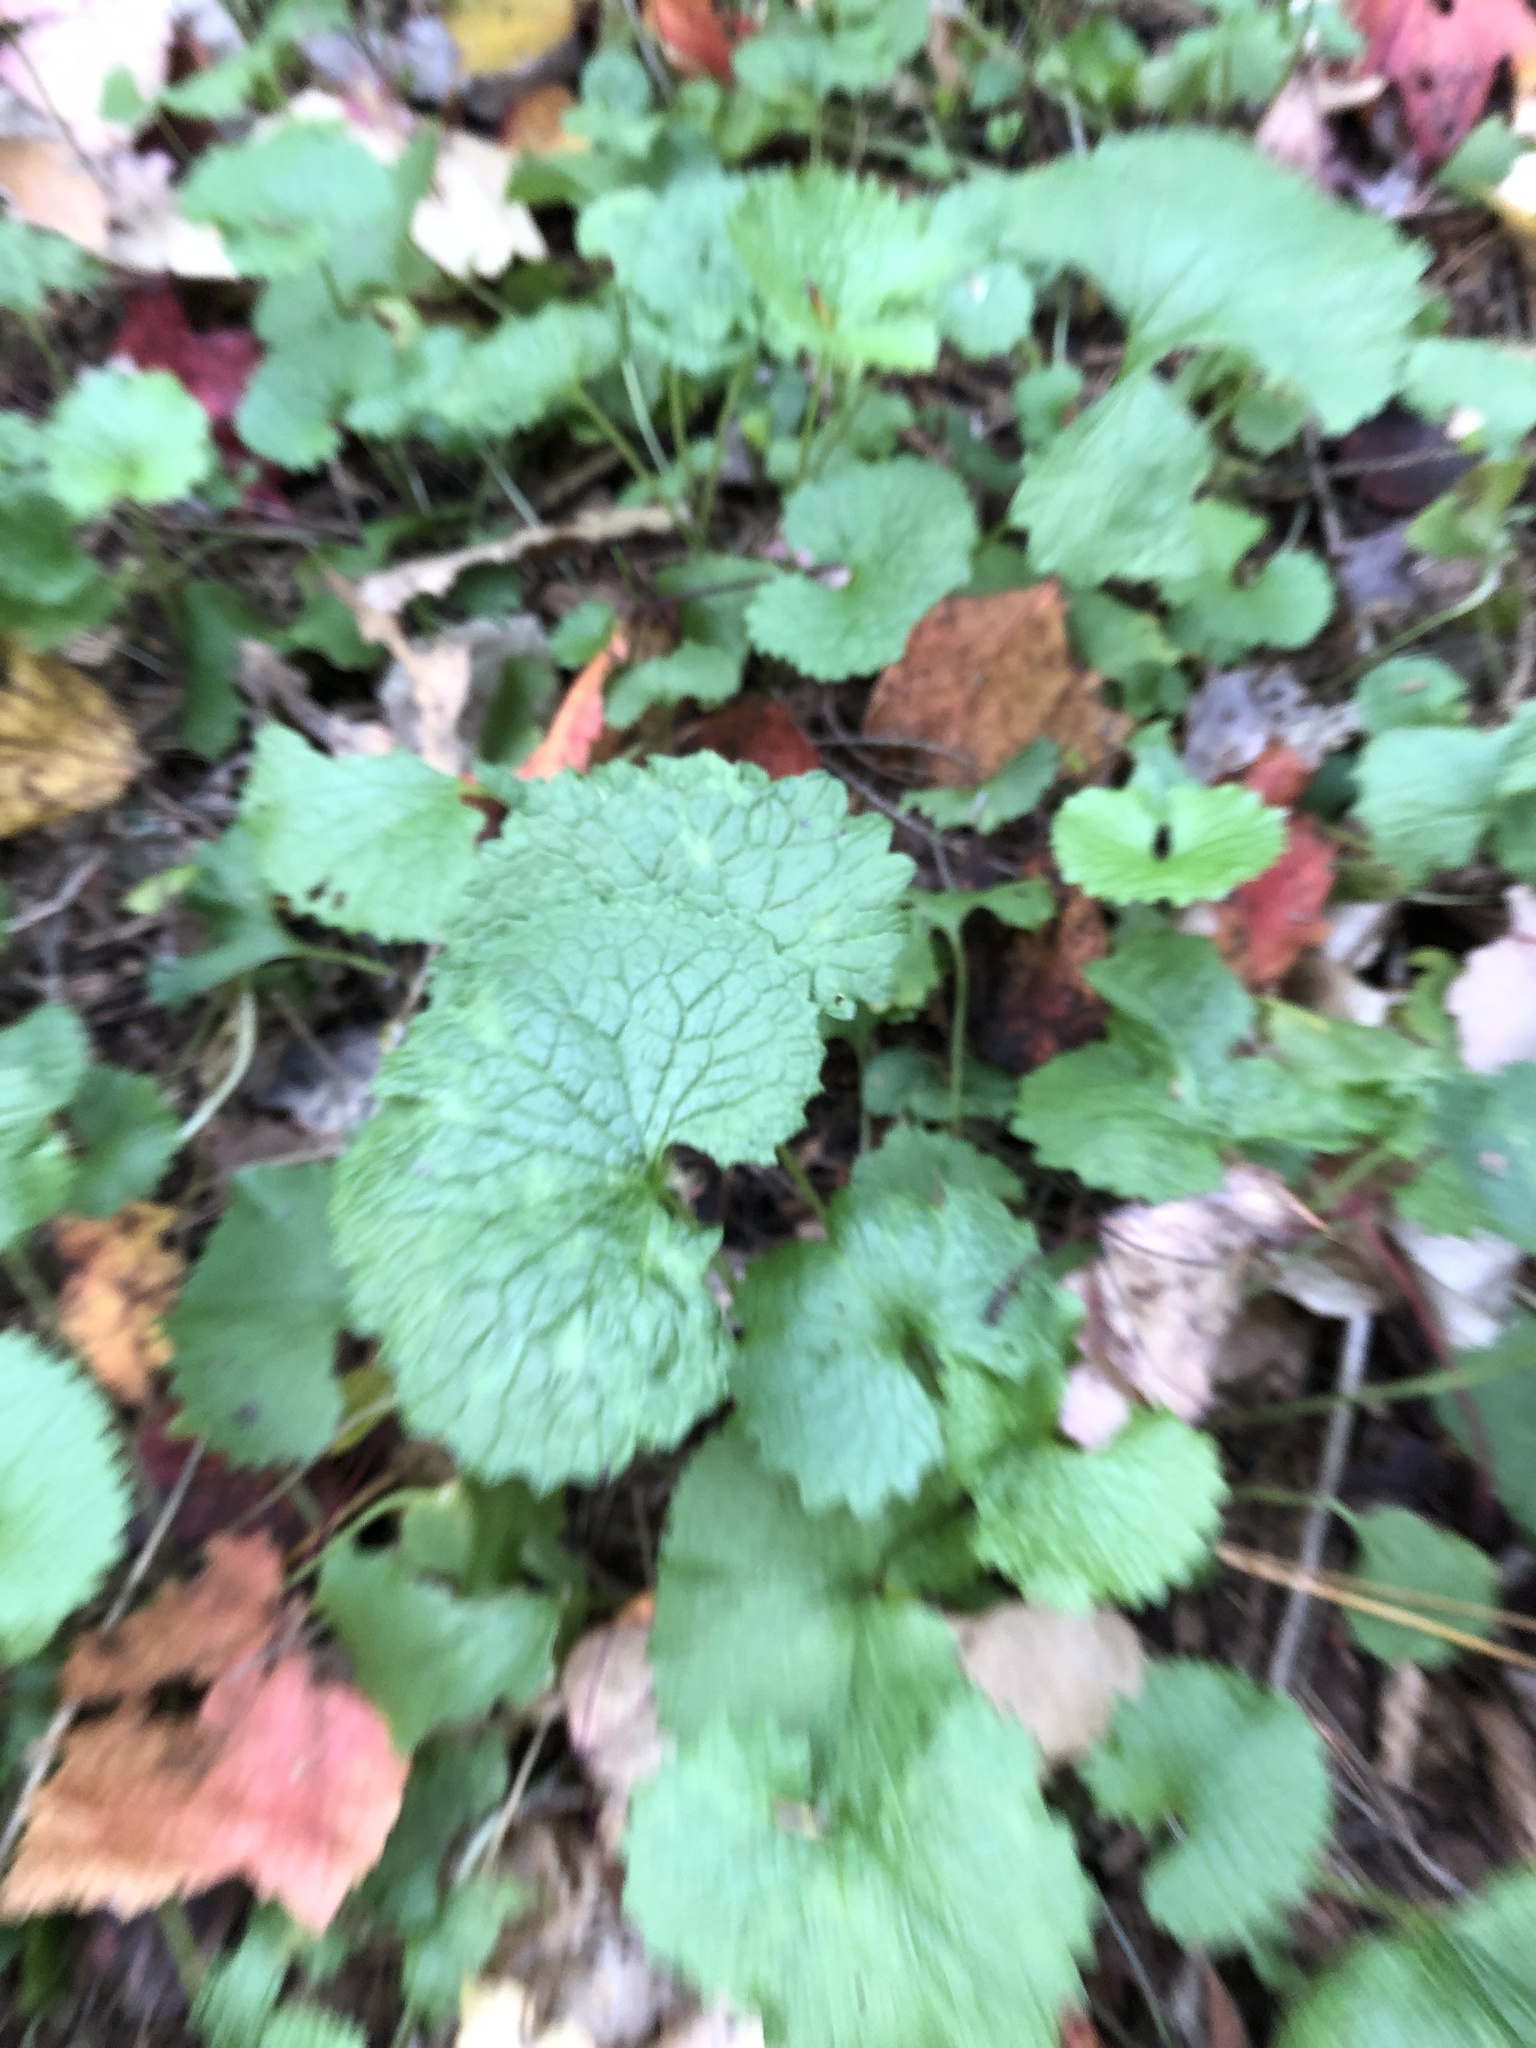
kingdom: Plantae
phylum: Tracheophyta
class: Magnoliopsida
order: Brassicales
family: Brassicaceae
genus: Alliaria
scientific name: Alliaria petiolata
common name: Garlic mustard
